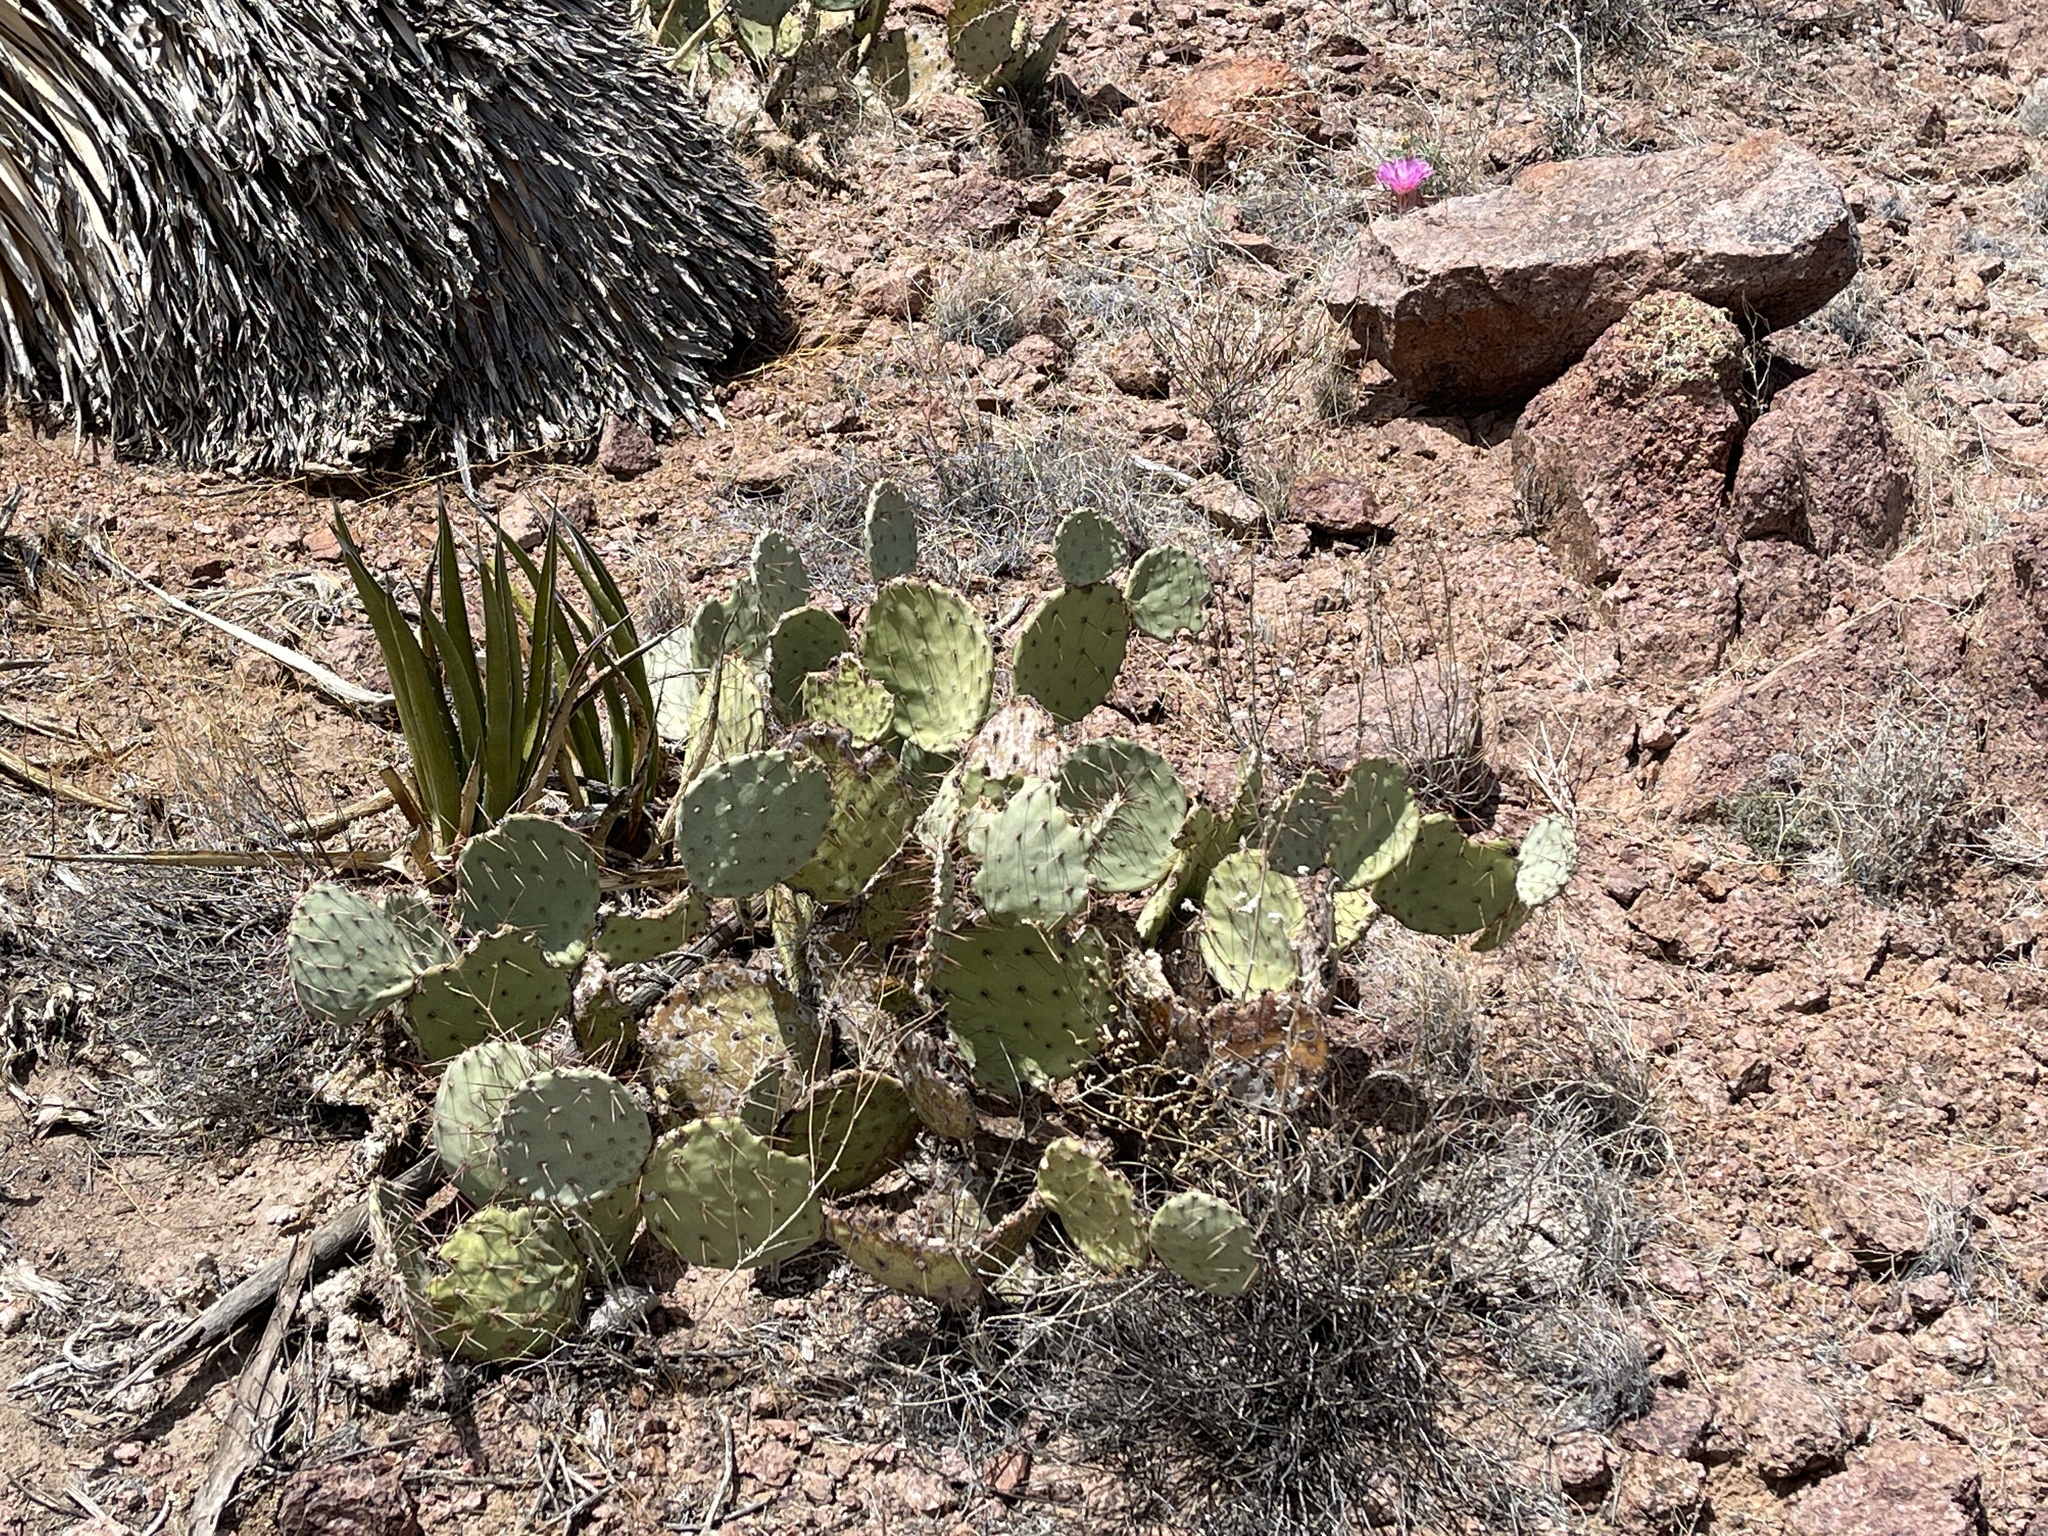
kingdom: Plantae
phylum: Tracheophyta
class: Magnoliopsida
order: Caryophyllales
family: Cactaceae
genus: Opuntia
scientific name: Opuntia engelmannii
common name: Cactus-apple
